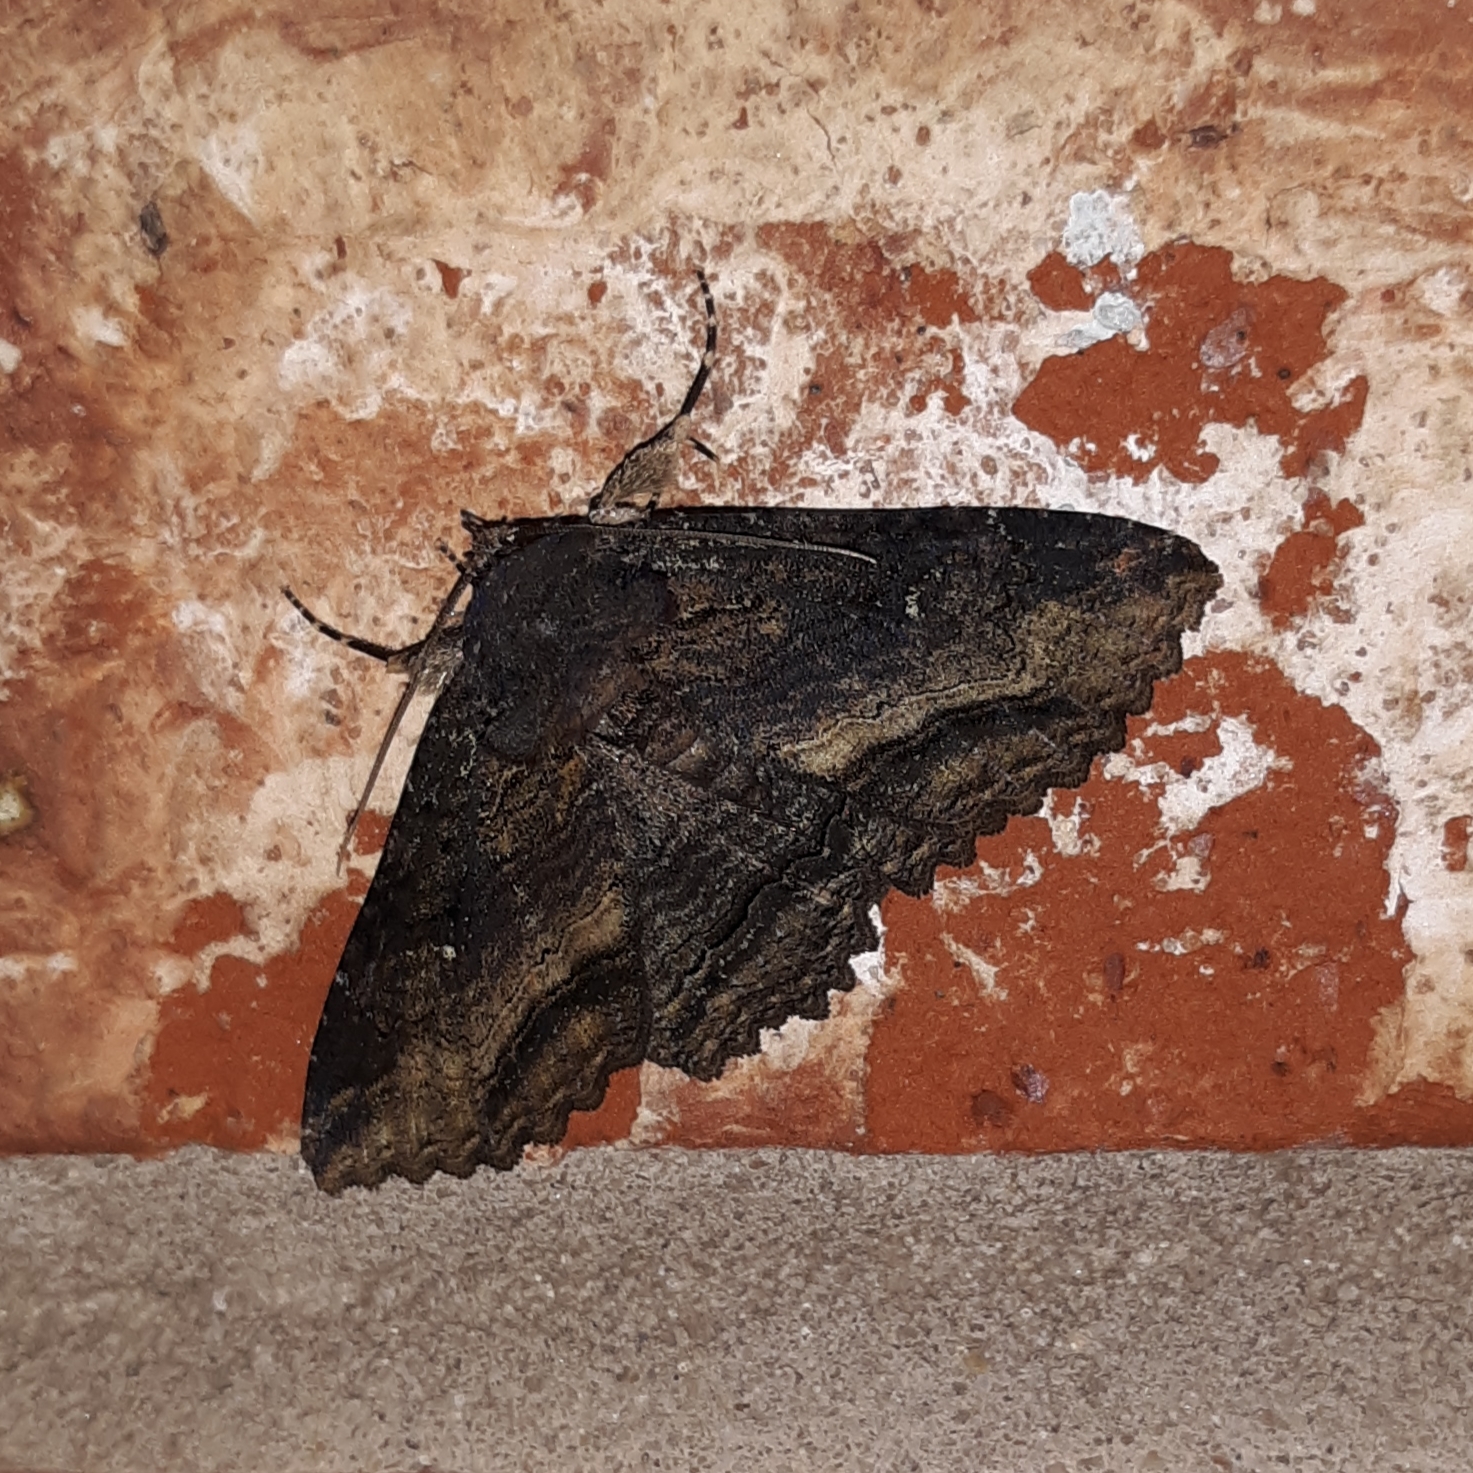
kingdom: Animalia
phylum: Arthropoda
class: Insecta
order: Lepidoptera
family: Erebidae
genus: Zale
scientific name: Zale lunata
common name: Lunate zale moth
